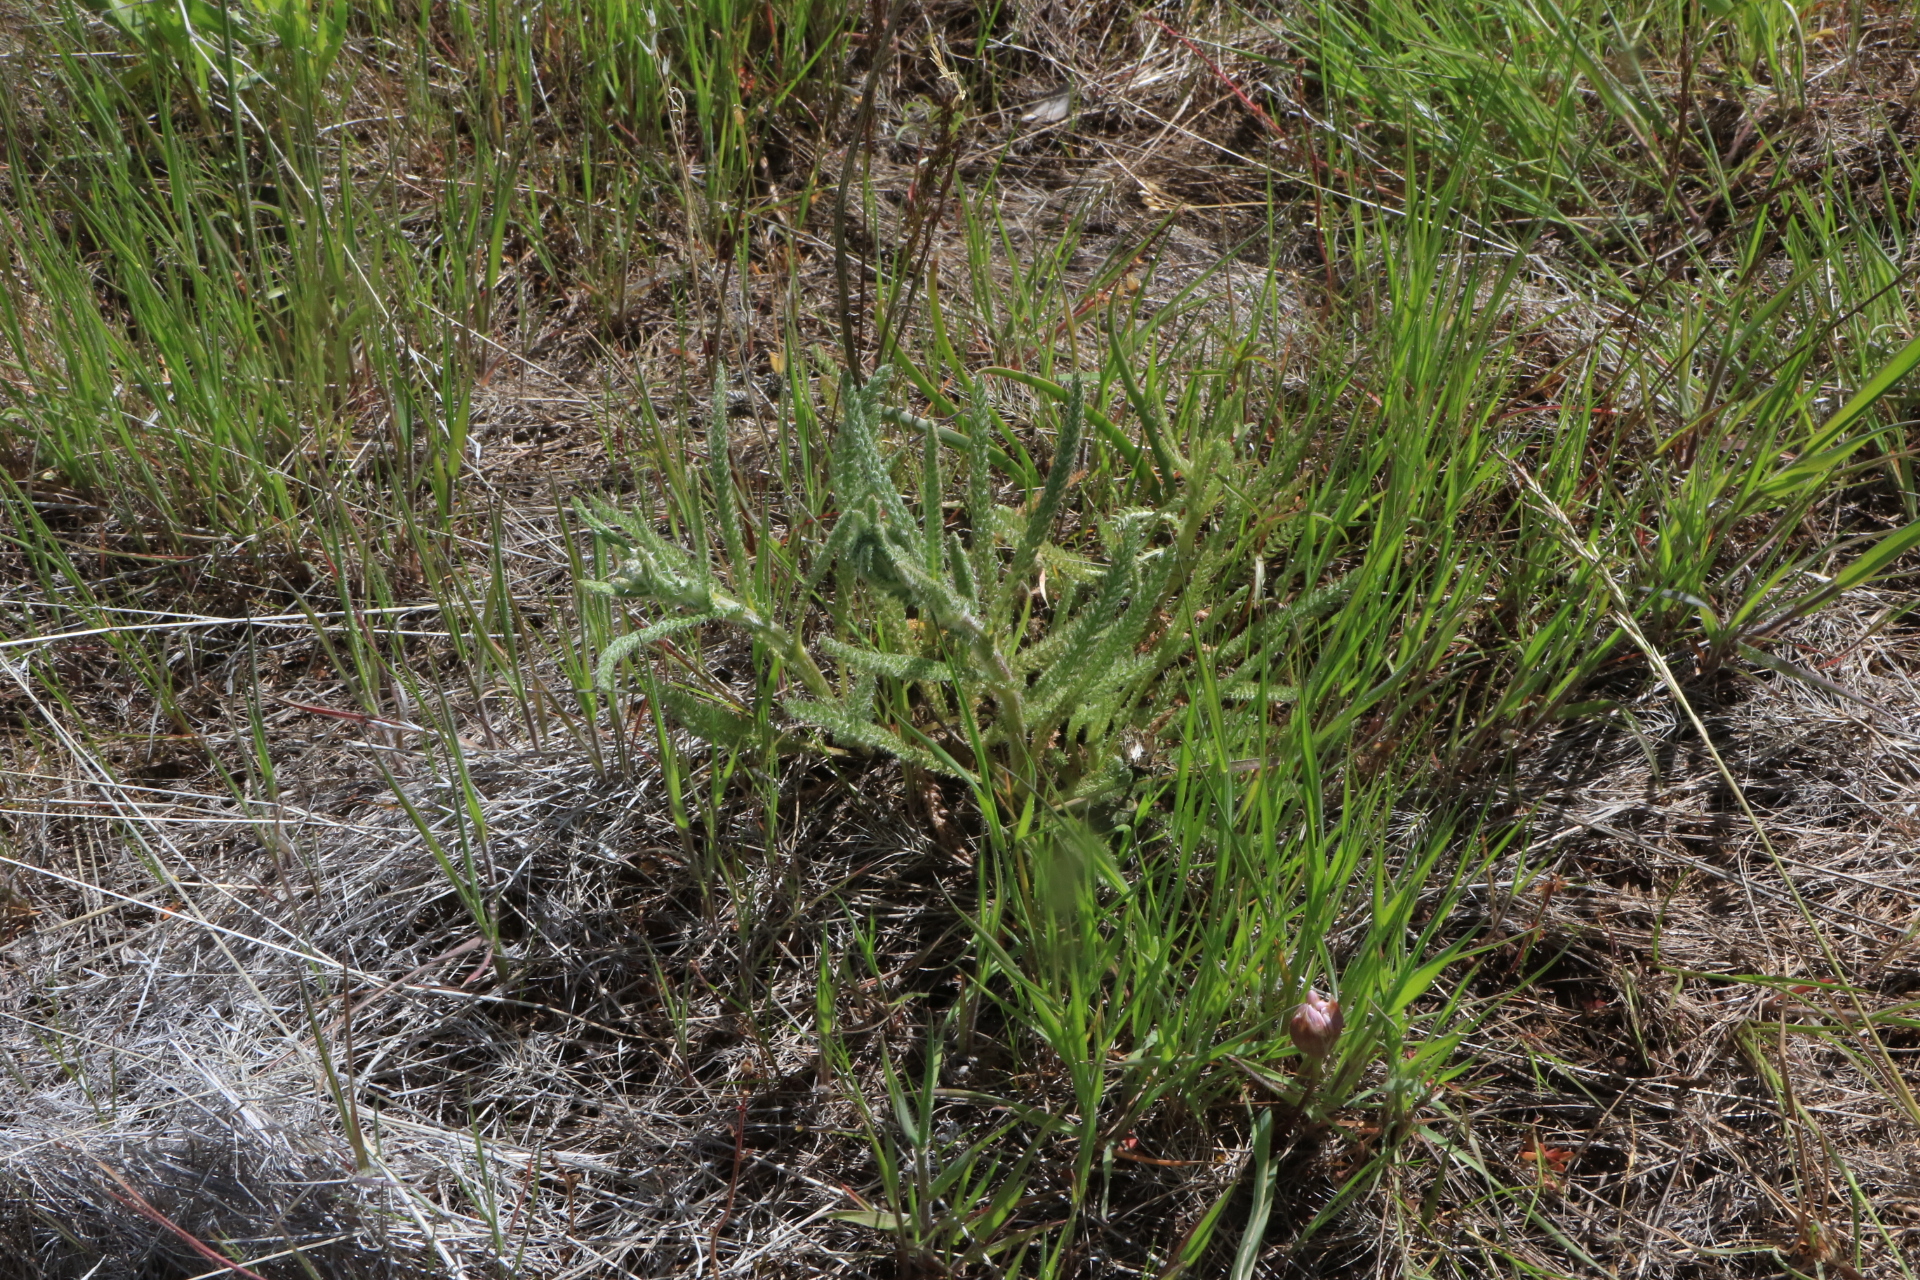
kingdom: Plantae
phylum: Tracheophyta
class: Magnoliopsida
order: Asterales
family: Asteraceae
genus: Achillea
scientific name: Achillea millefolium
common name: Yarrow
